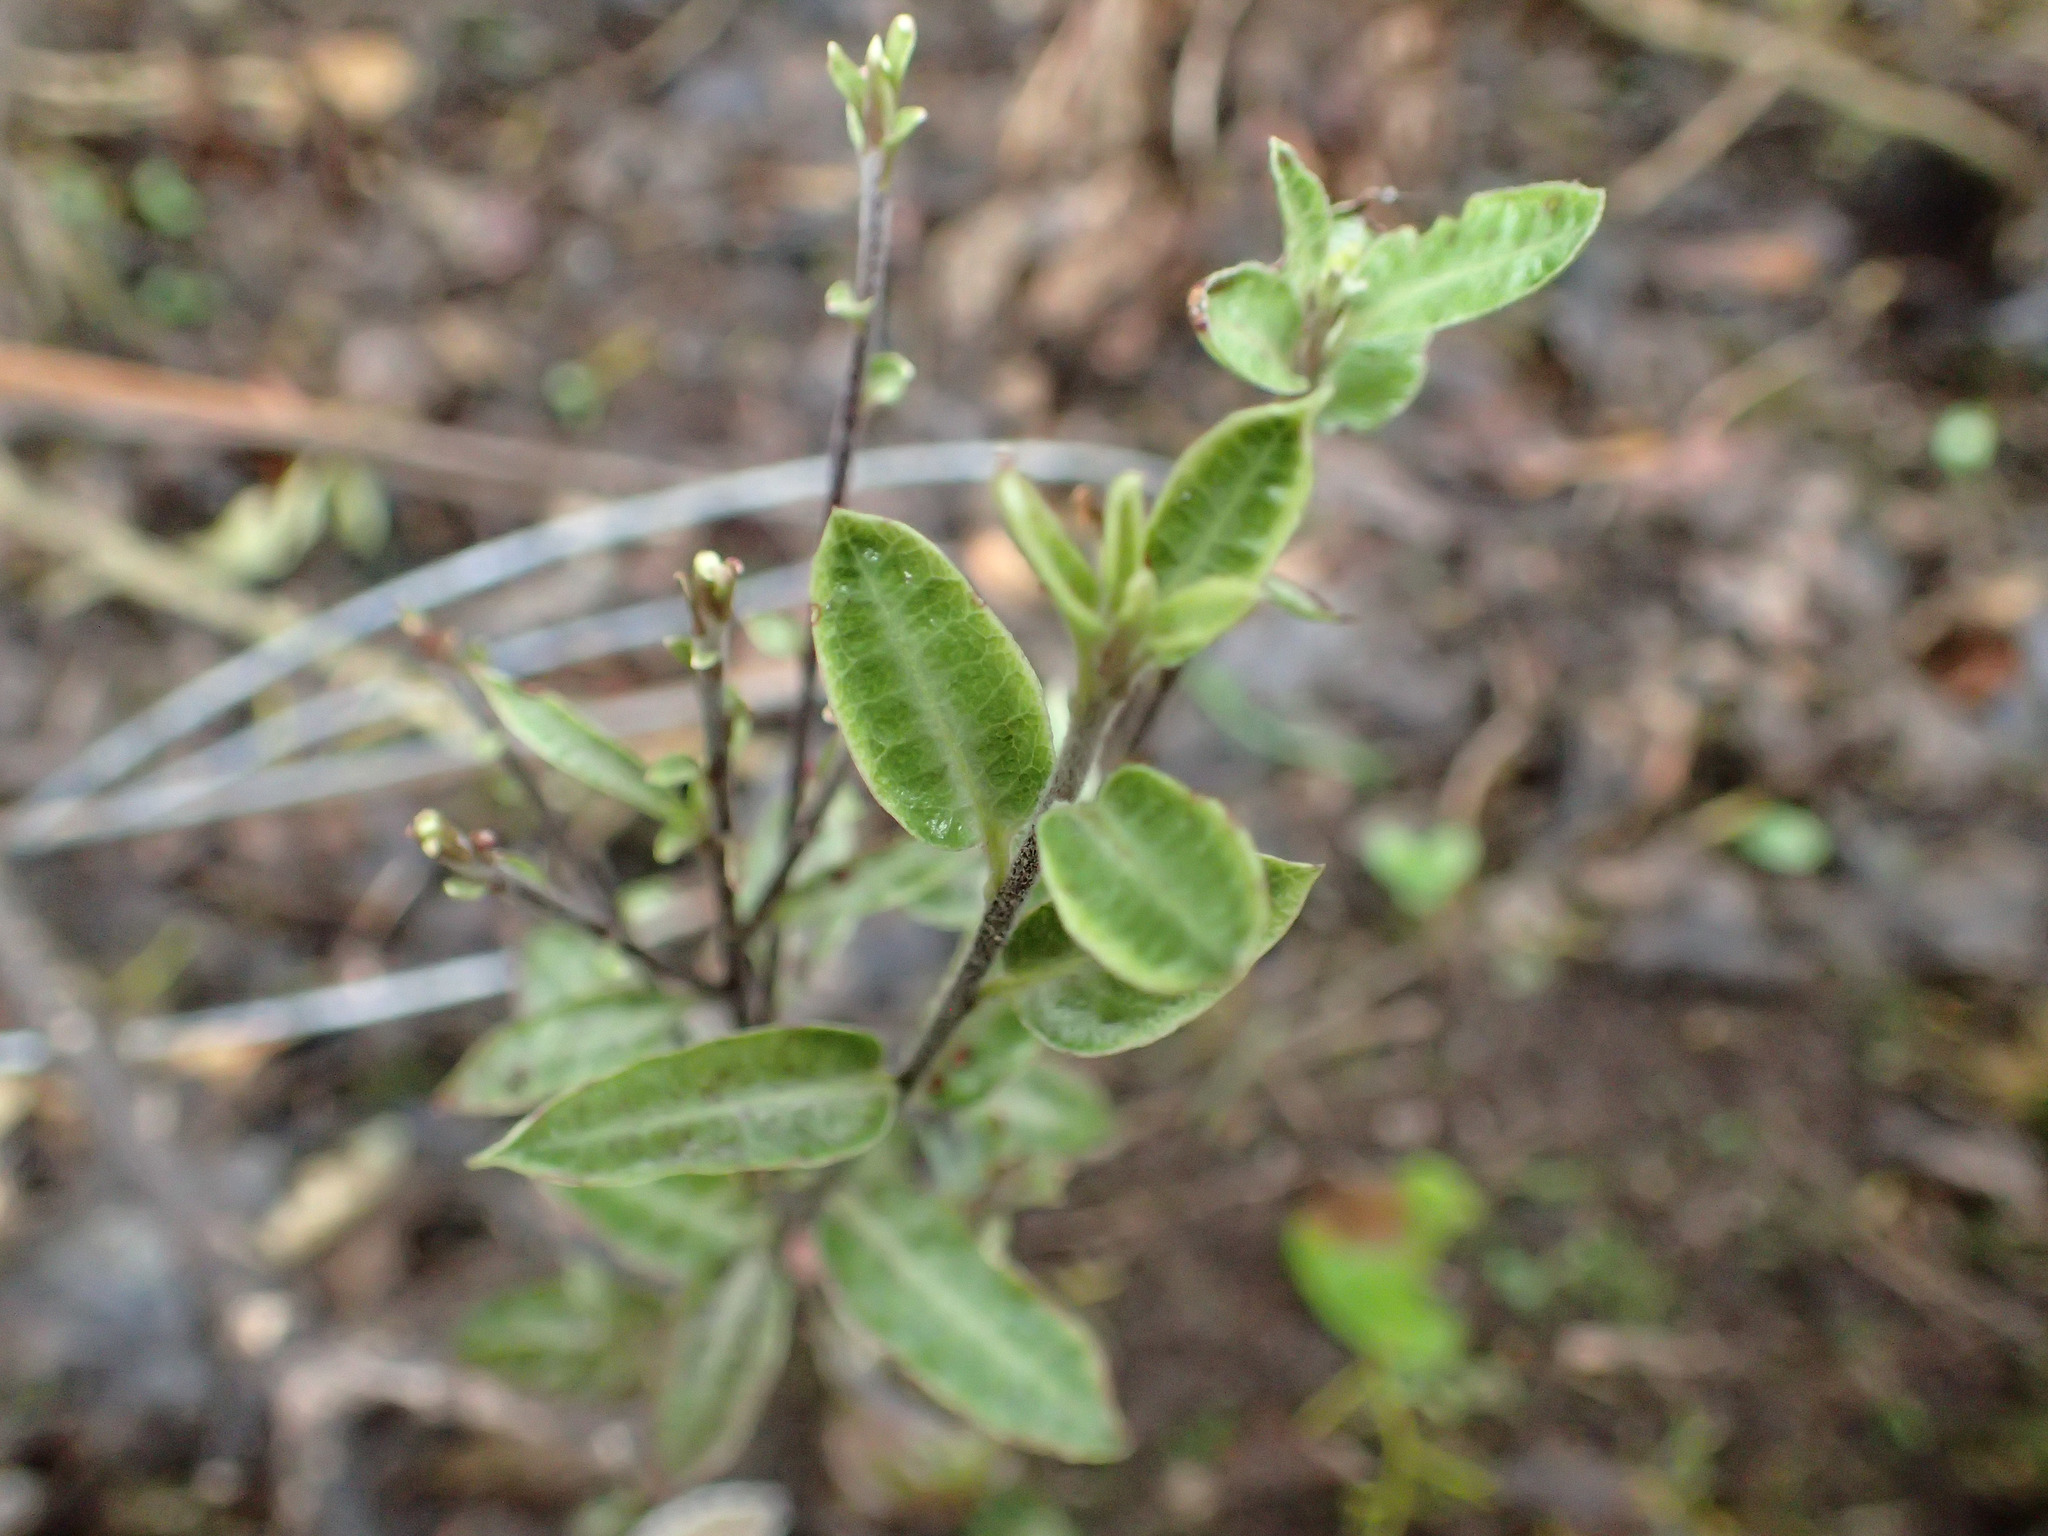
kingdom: Plantae
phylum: Tracheophyta
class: Magnoliopsida
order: Apiales
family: Pittosporaceae
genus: Pittosporum
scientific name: Pittosporum tenuifolium
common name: Kohuhu
